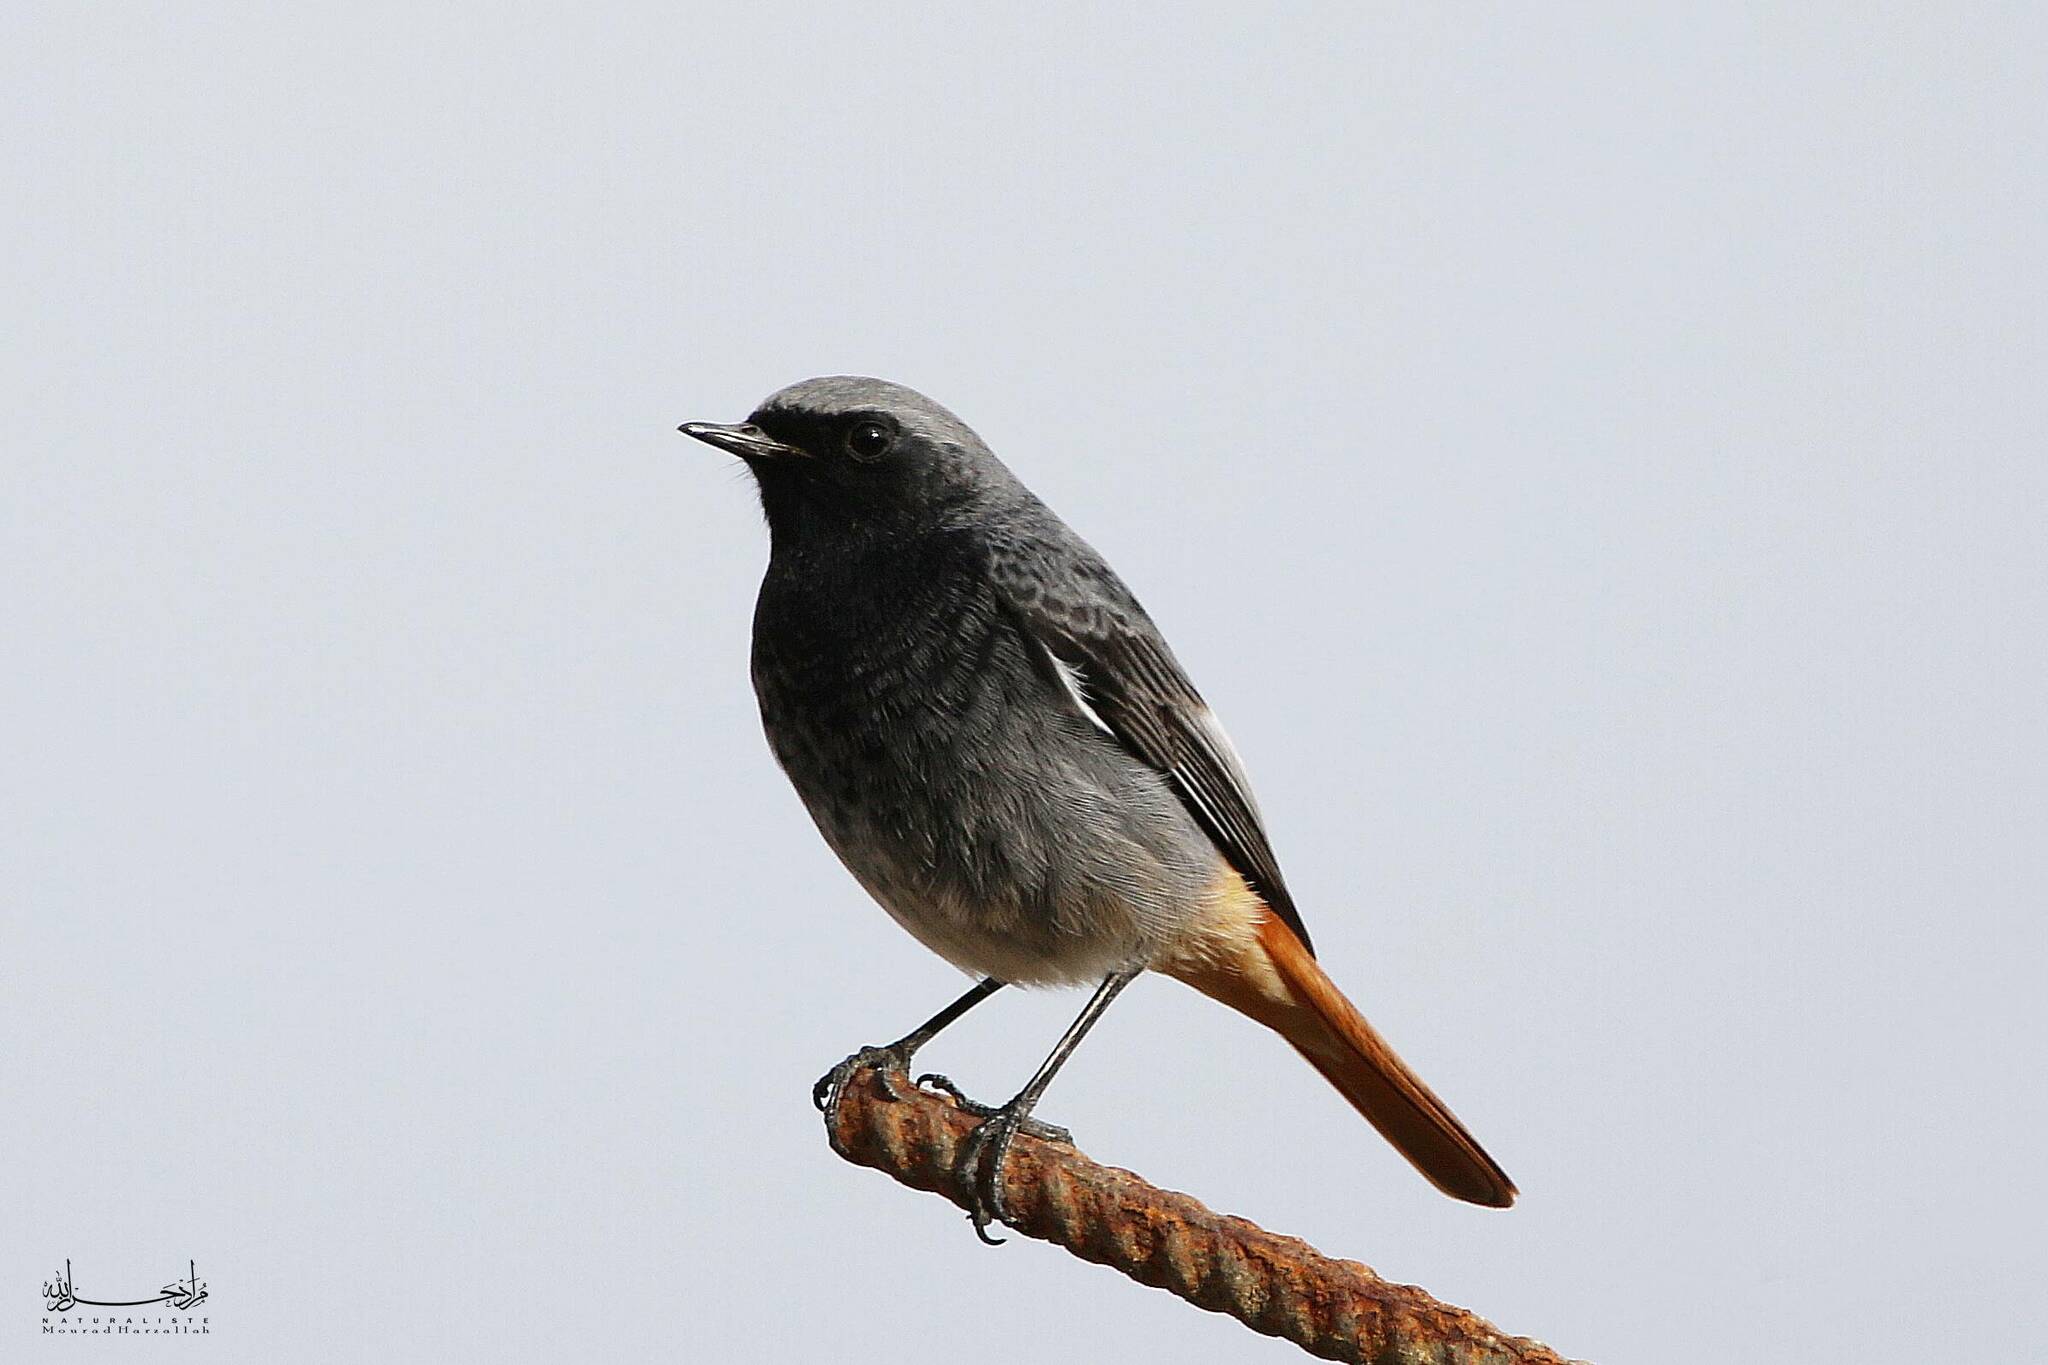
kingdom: Animalia
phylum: Chordata
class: Aves
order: Passeriformes
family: Muscicapidae
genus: Phoenicurus
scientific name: Phoenicurus ochruros
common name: Black redstart
